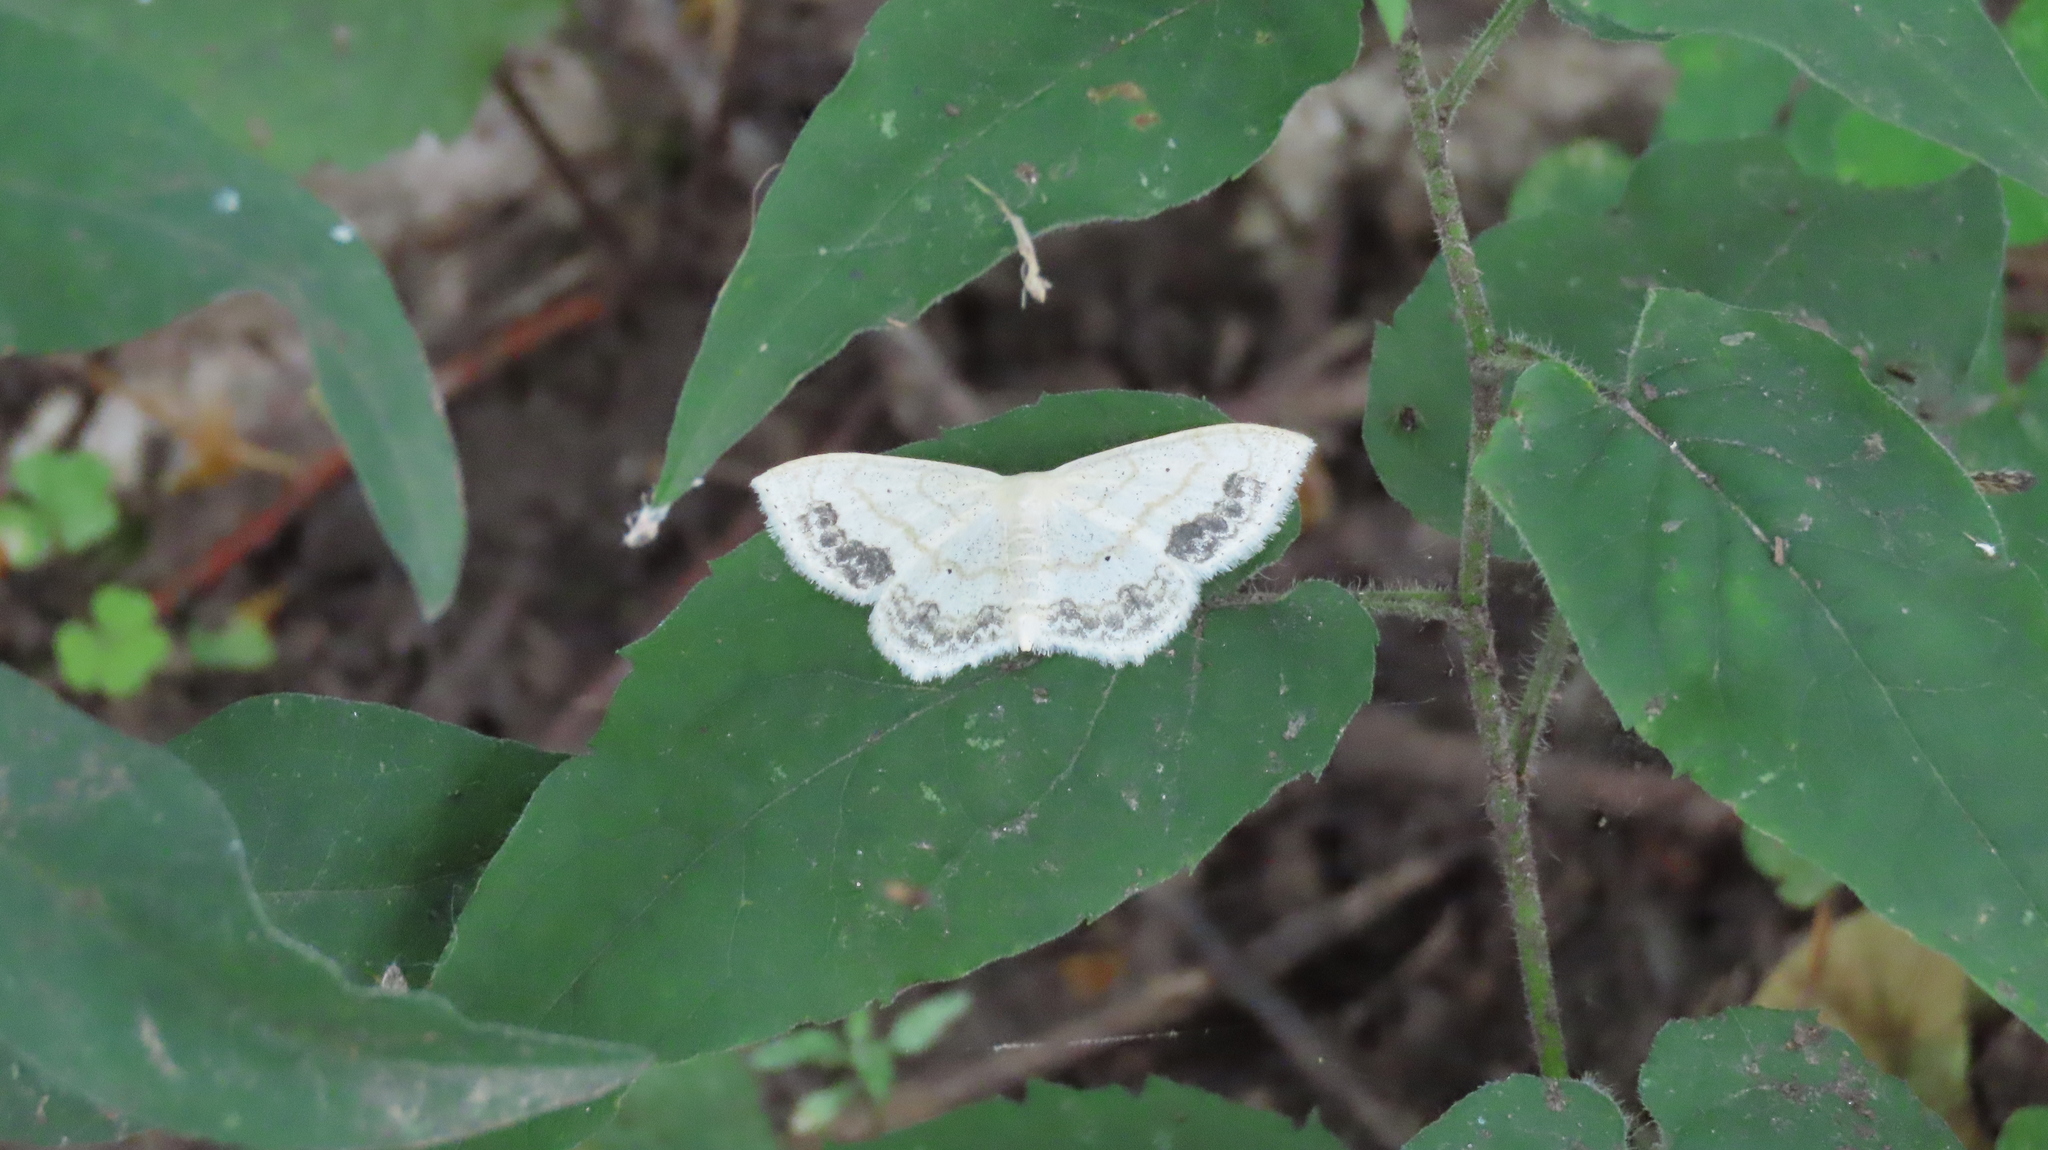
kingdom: Animalia
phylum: Arthropoda
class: Insecta
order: Lepidoptera
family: Geometridae
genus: Scopula
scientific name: Scopula limboundata
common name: Large lace border
